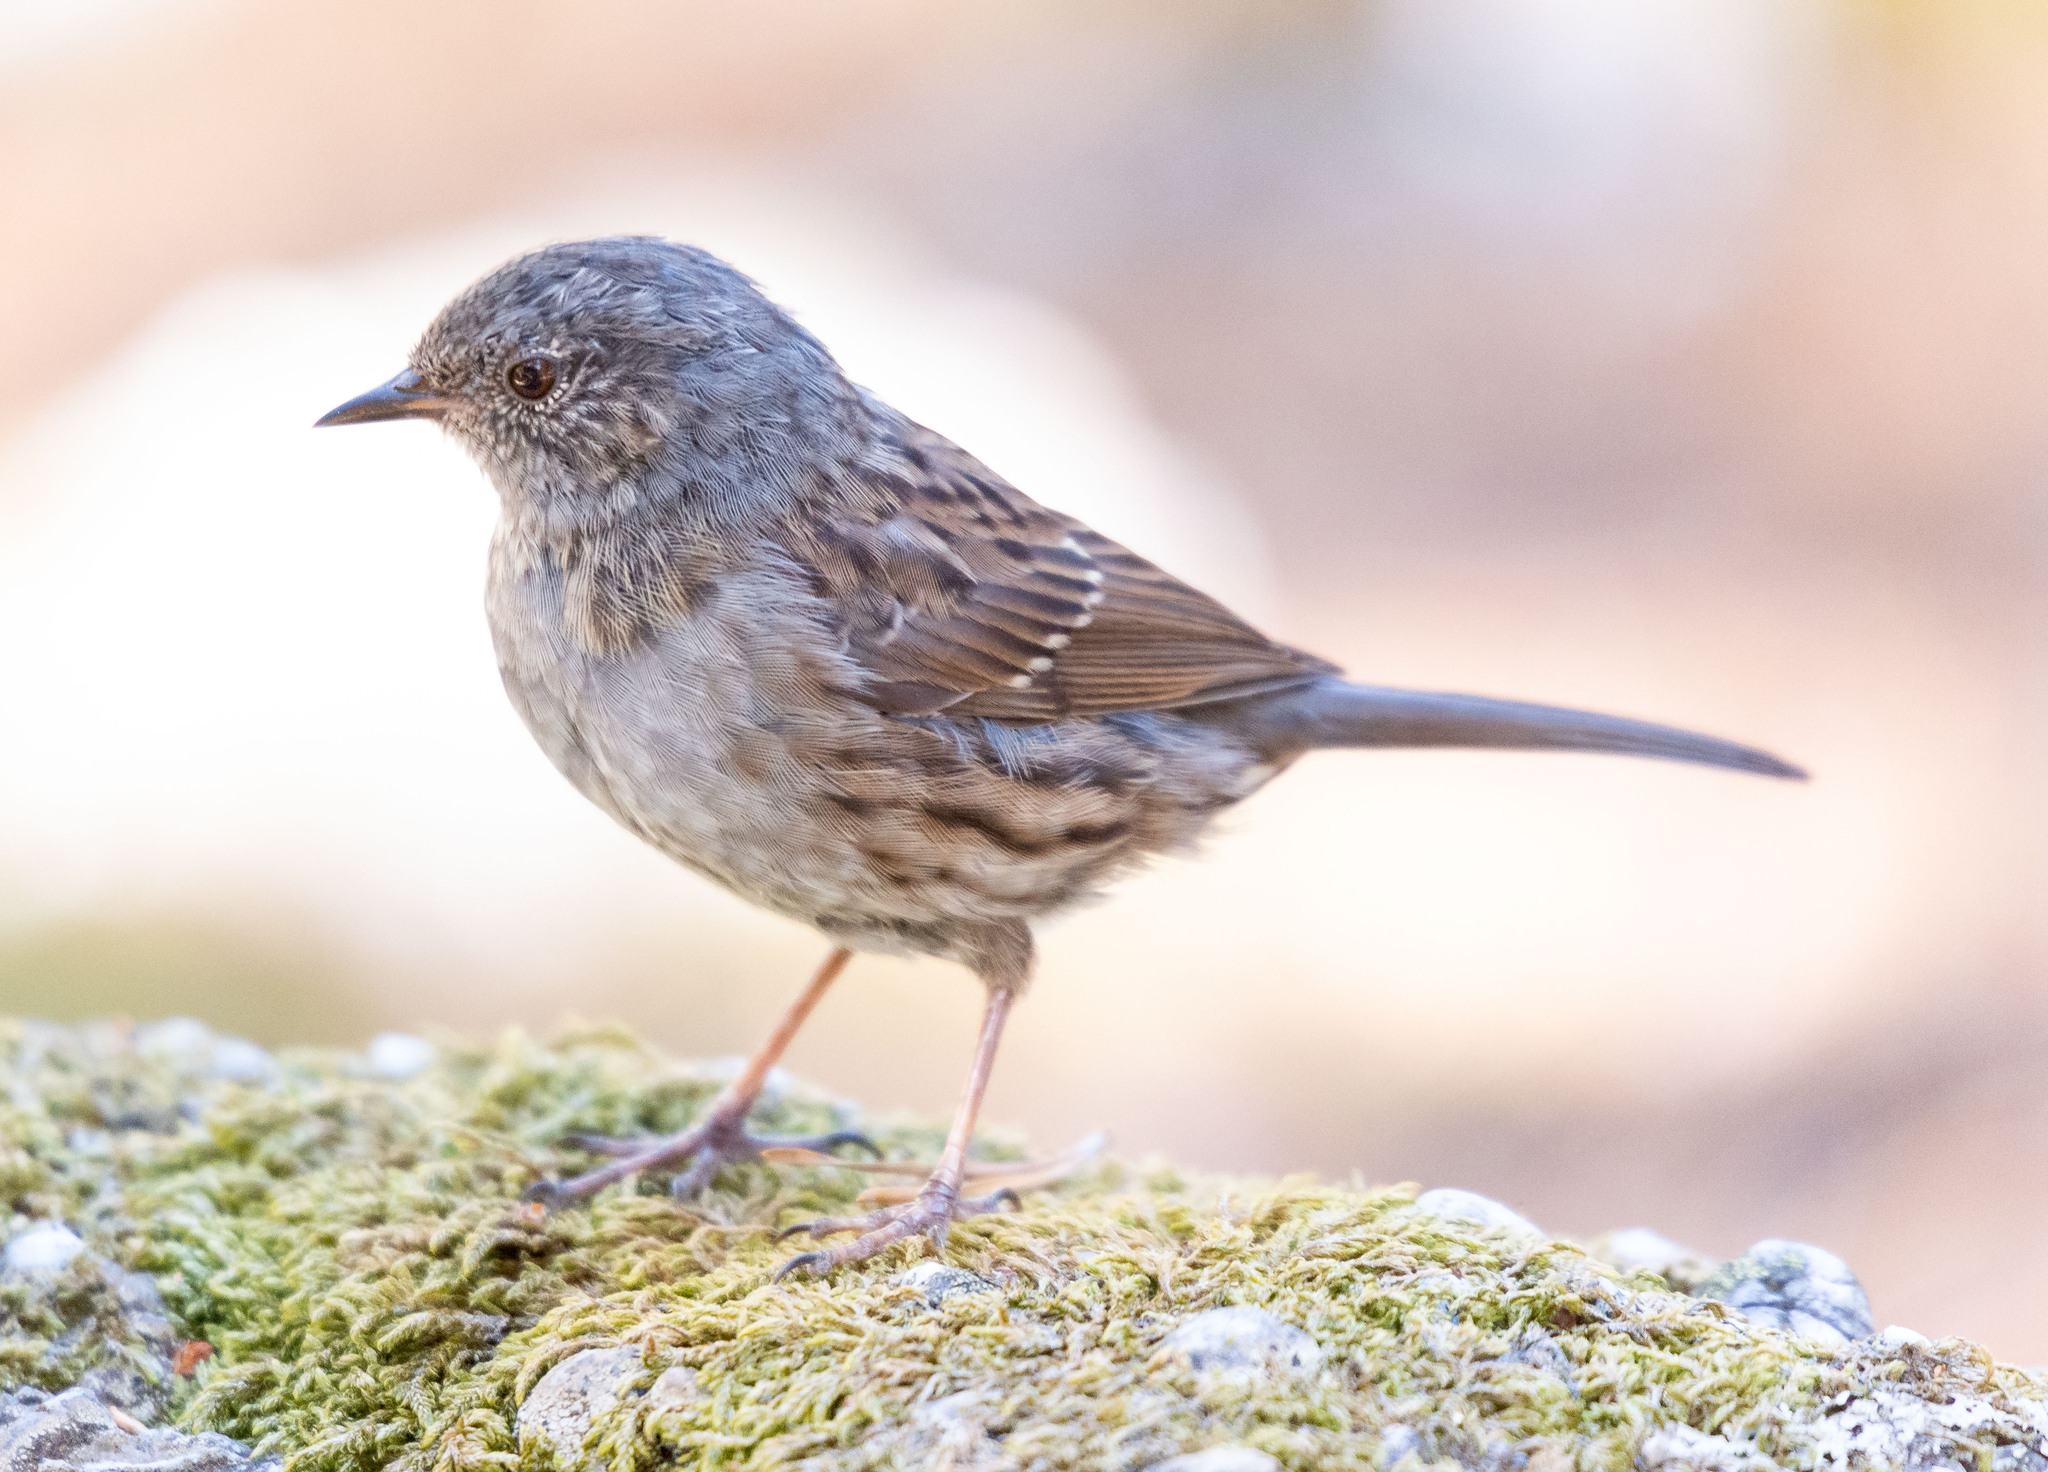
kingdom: Animalia
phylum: Chordata
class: Aves
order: Passeriformes
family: Prunellidae
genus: Prunella
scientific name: Prunella modularis
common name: Dunnock
